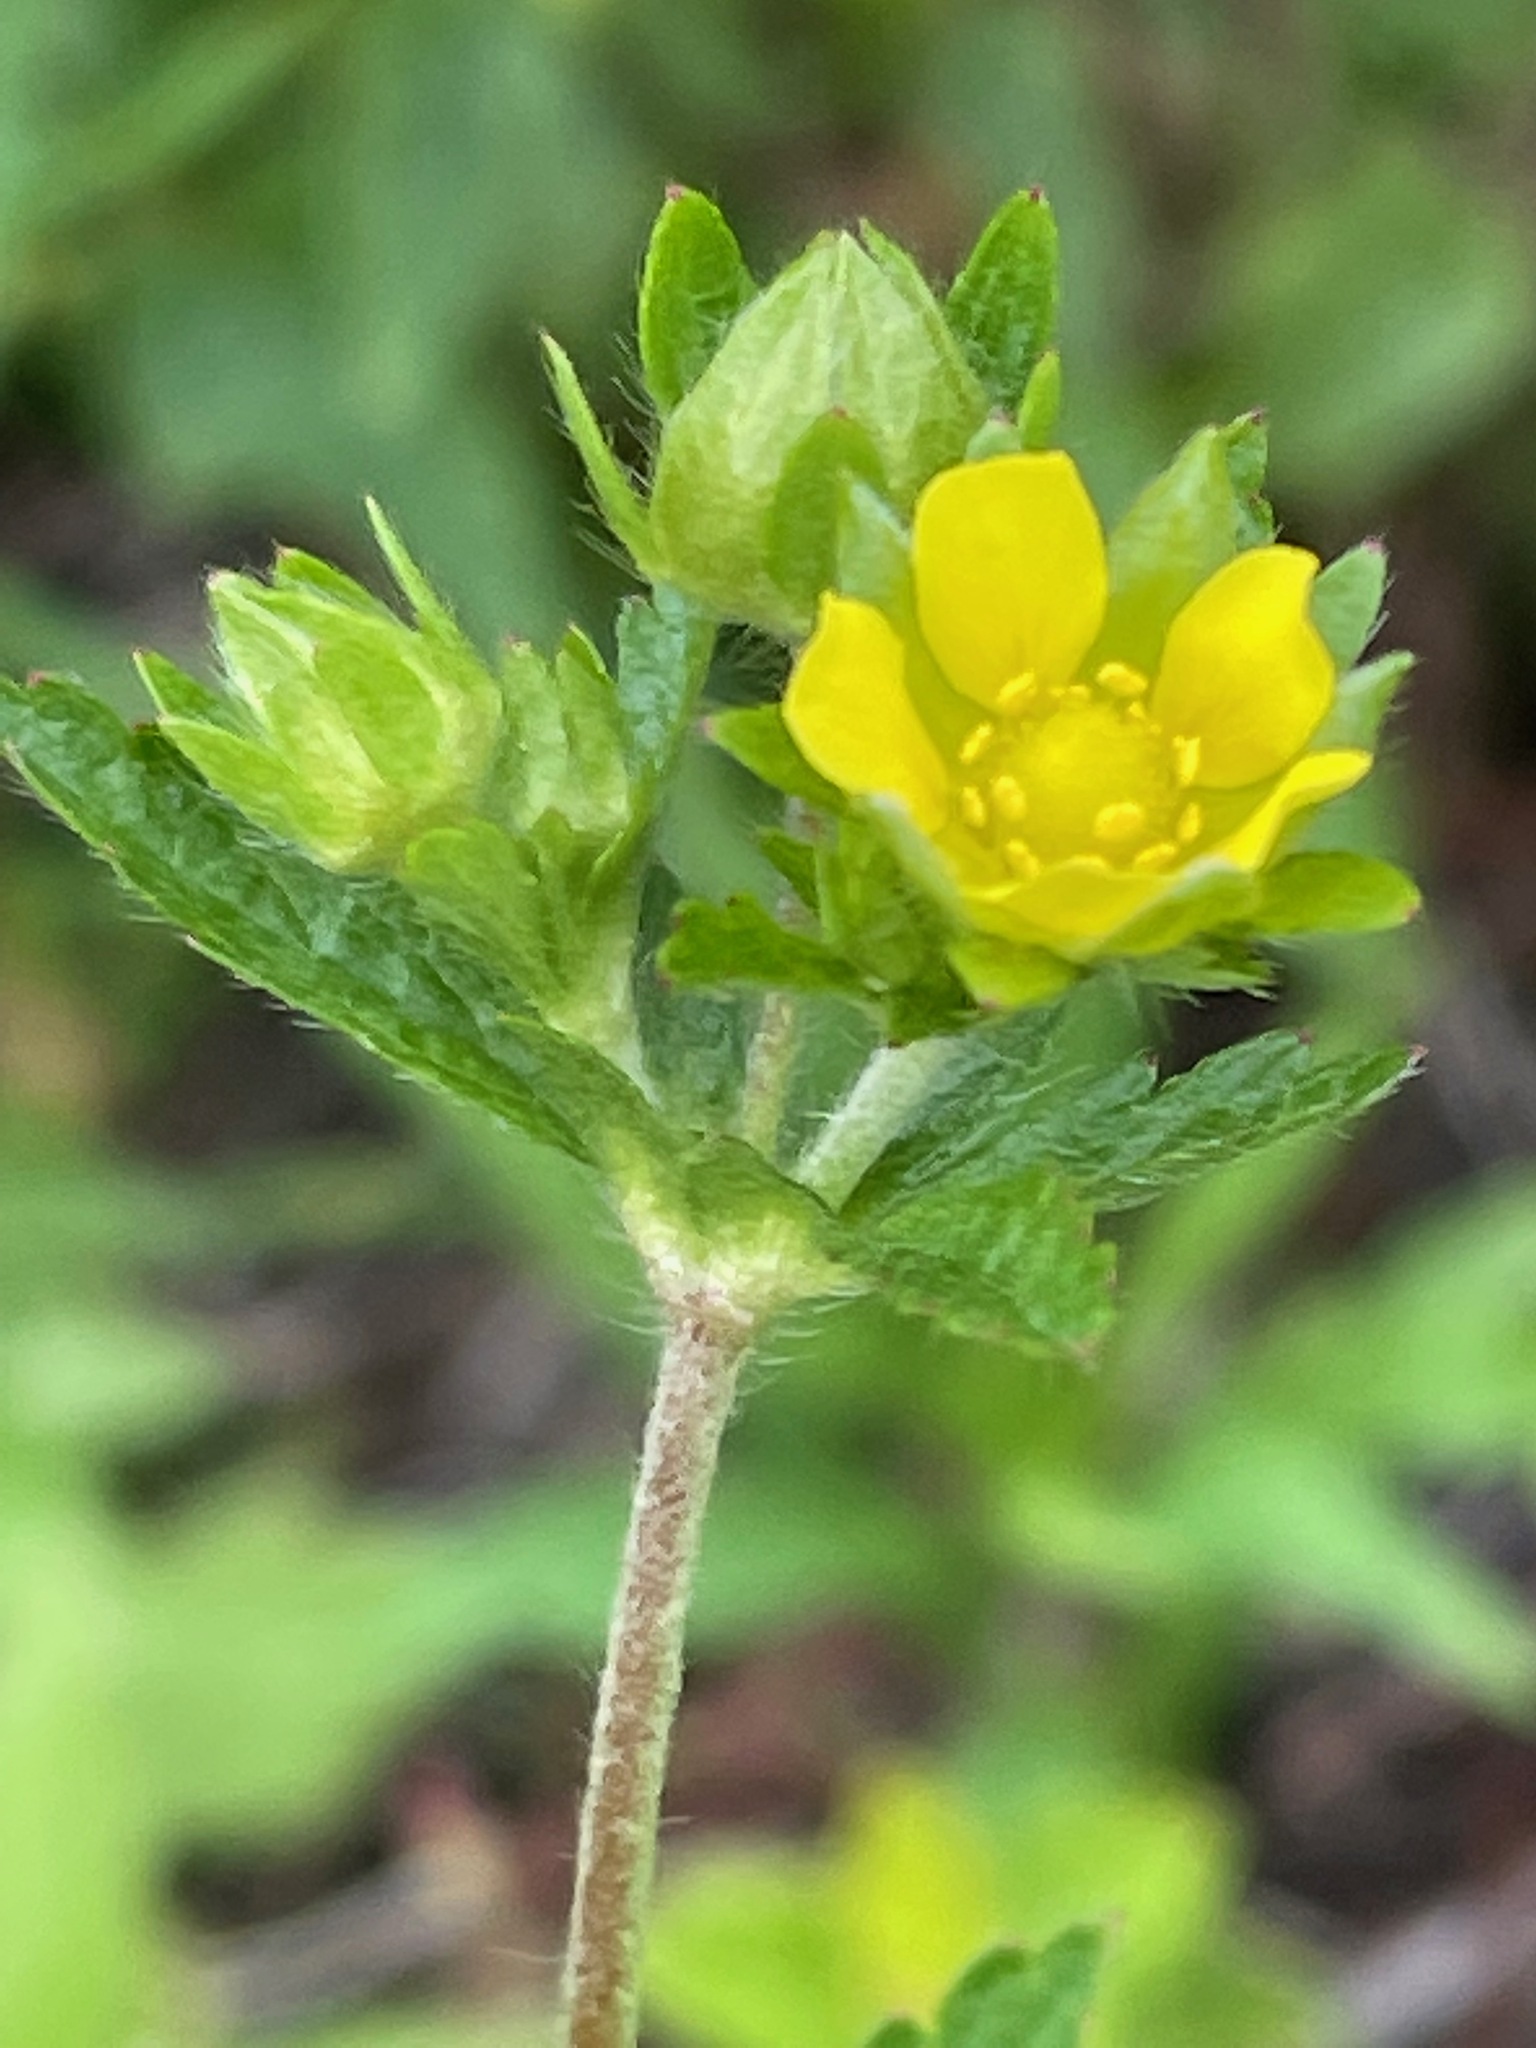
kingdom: Plantae
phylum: Tracheophyta
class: Magnoliopsida
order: Rosales
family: Rosaceae
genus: Potentilla
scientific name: Potentilla norvegica
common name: Ternate-leaved cinquefoil
